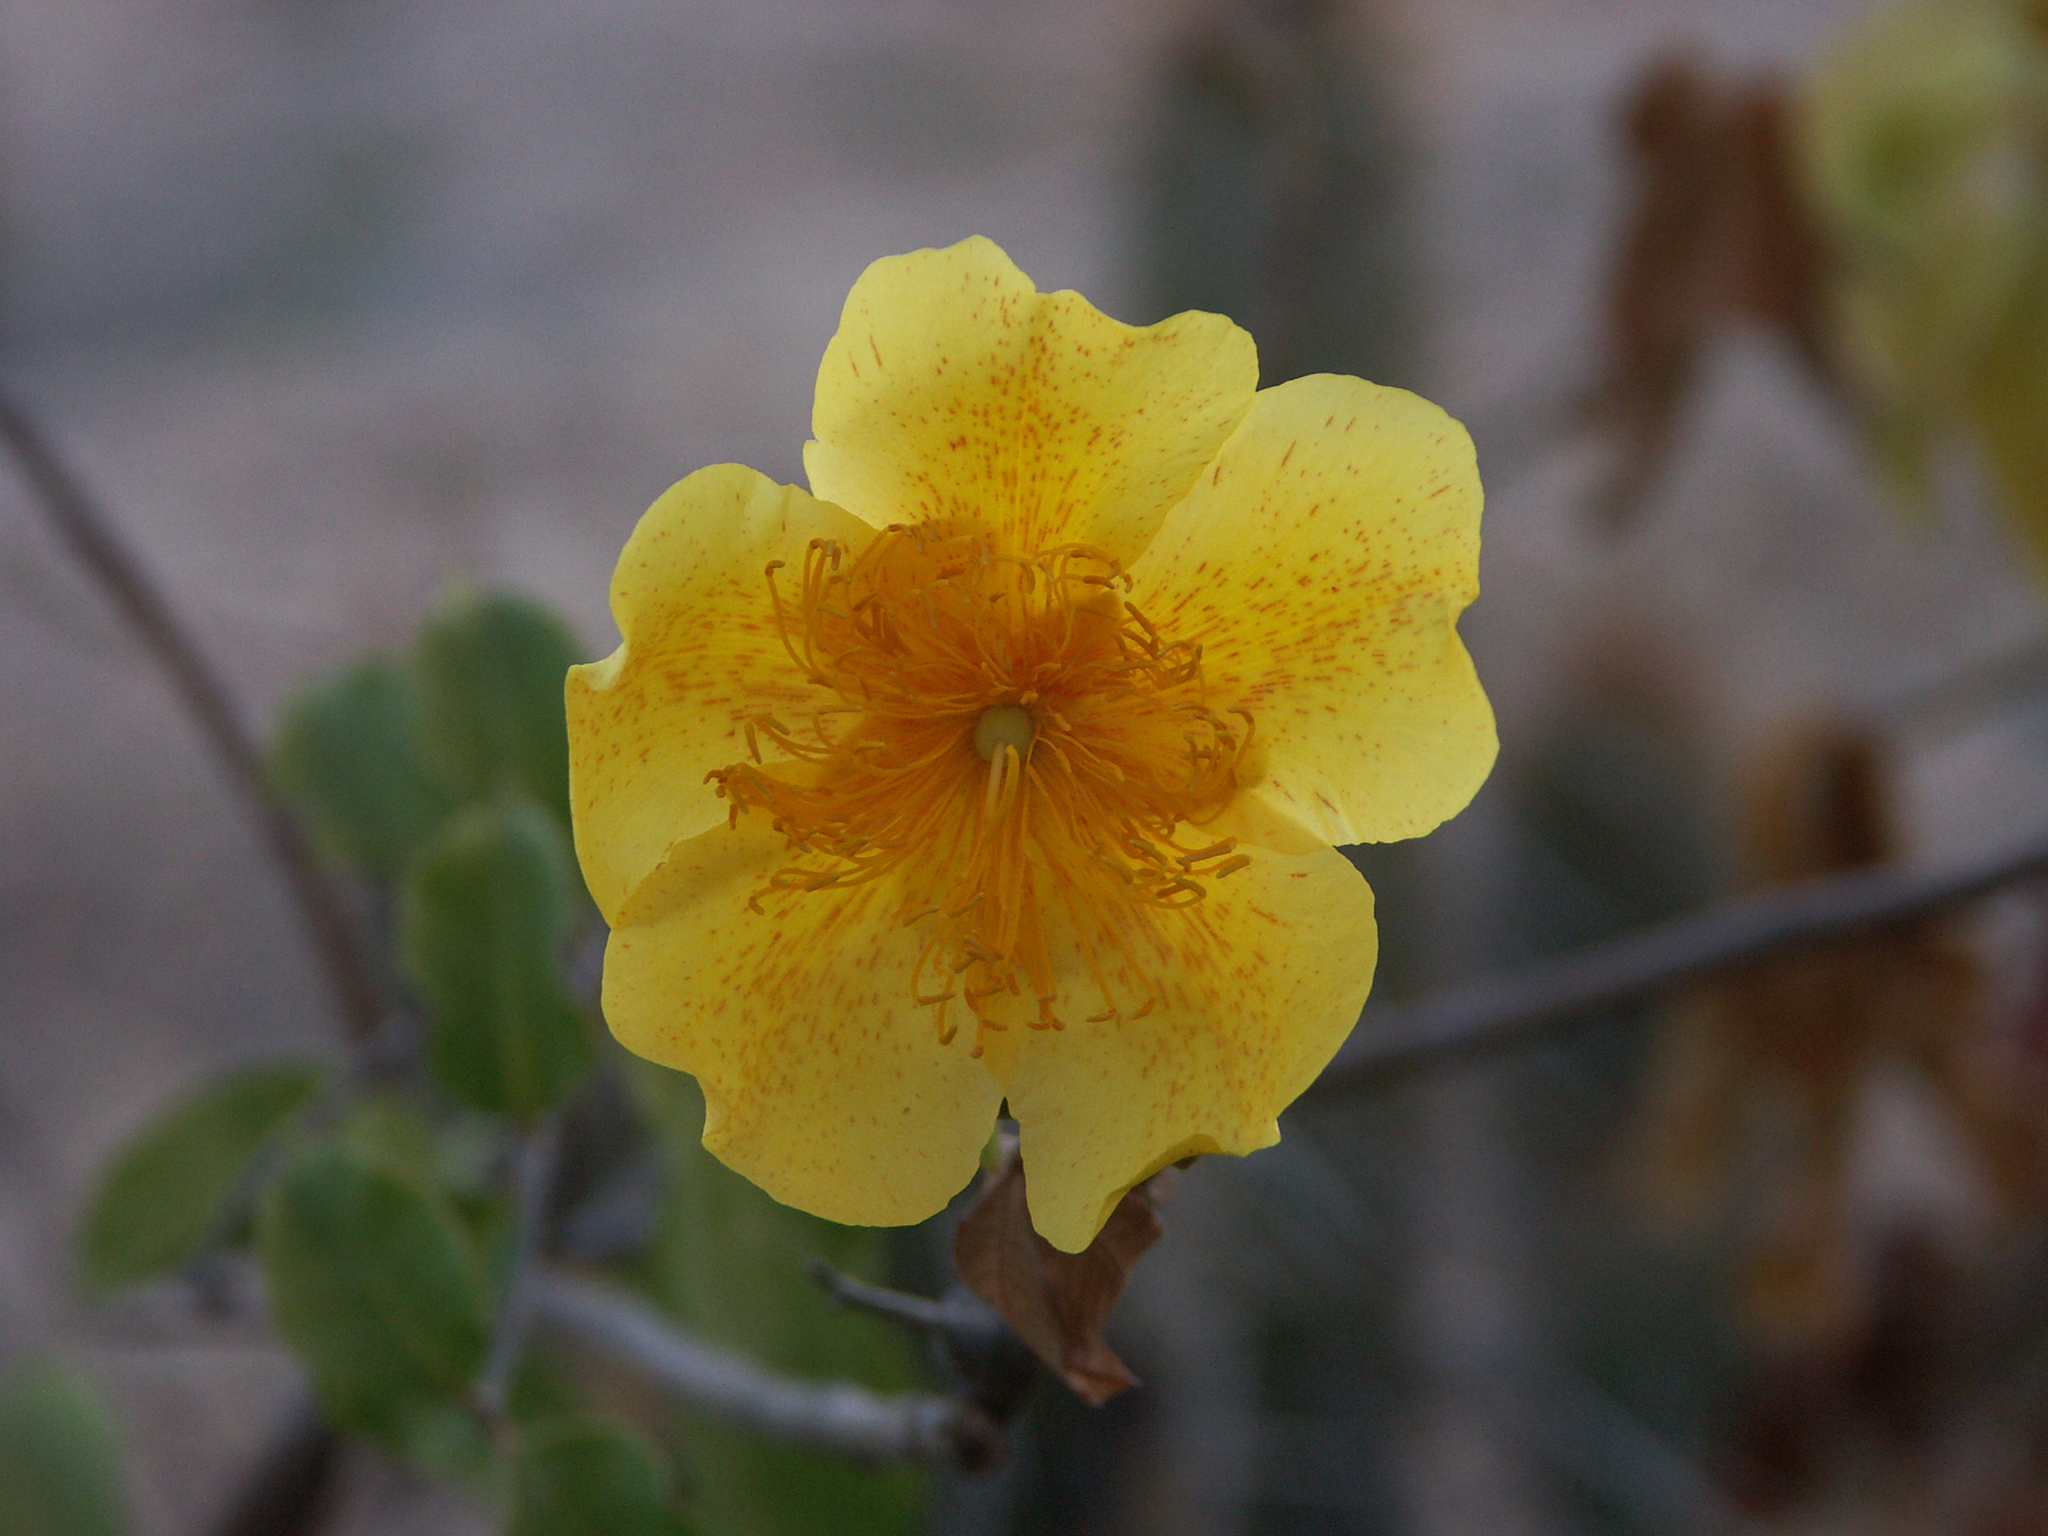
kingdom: Plantae
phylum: Tracheophyta
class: Magnoliopsida
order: Malvales
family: Cochlospermaceae
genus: Cochlospermum
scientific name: Cochlospermum vitifolium
